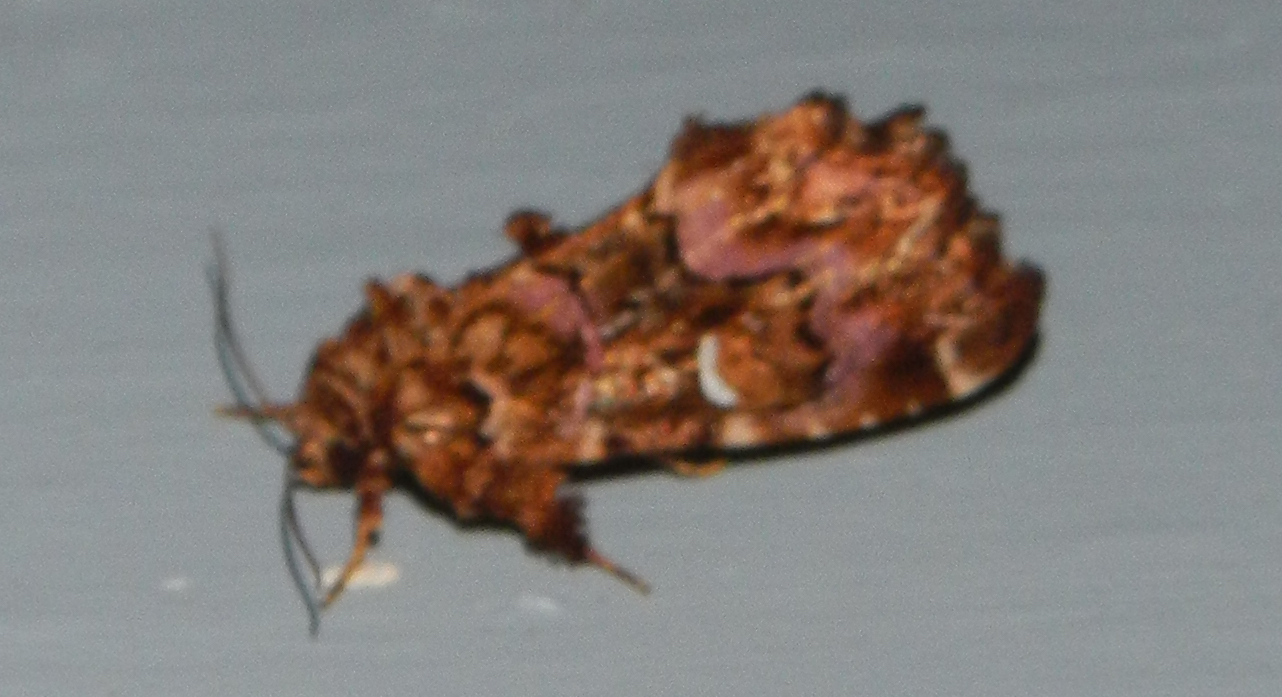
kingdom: Animalia
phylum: Arthropoda
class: Insecta
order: Lepidoptera
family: Noctuidae
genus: Callopistria
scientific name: Callopistria mollissima
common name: Pink-shaded fern moth
